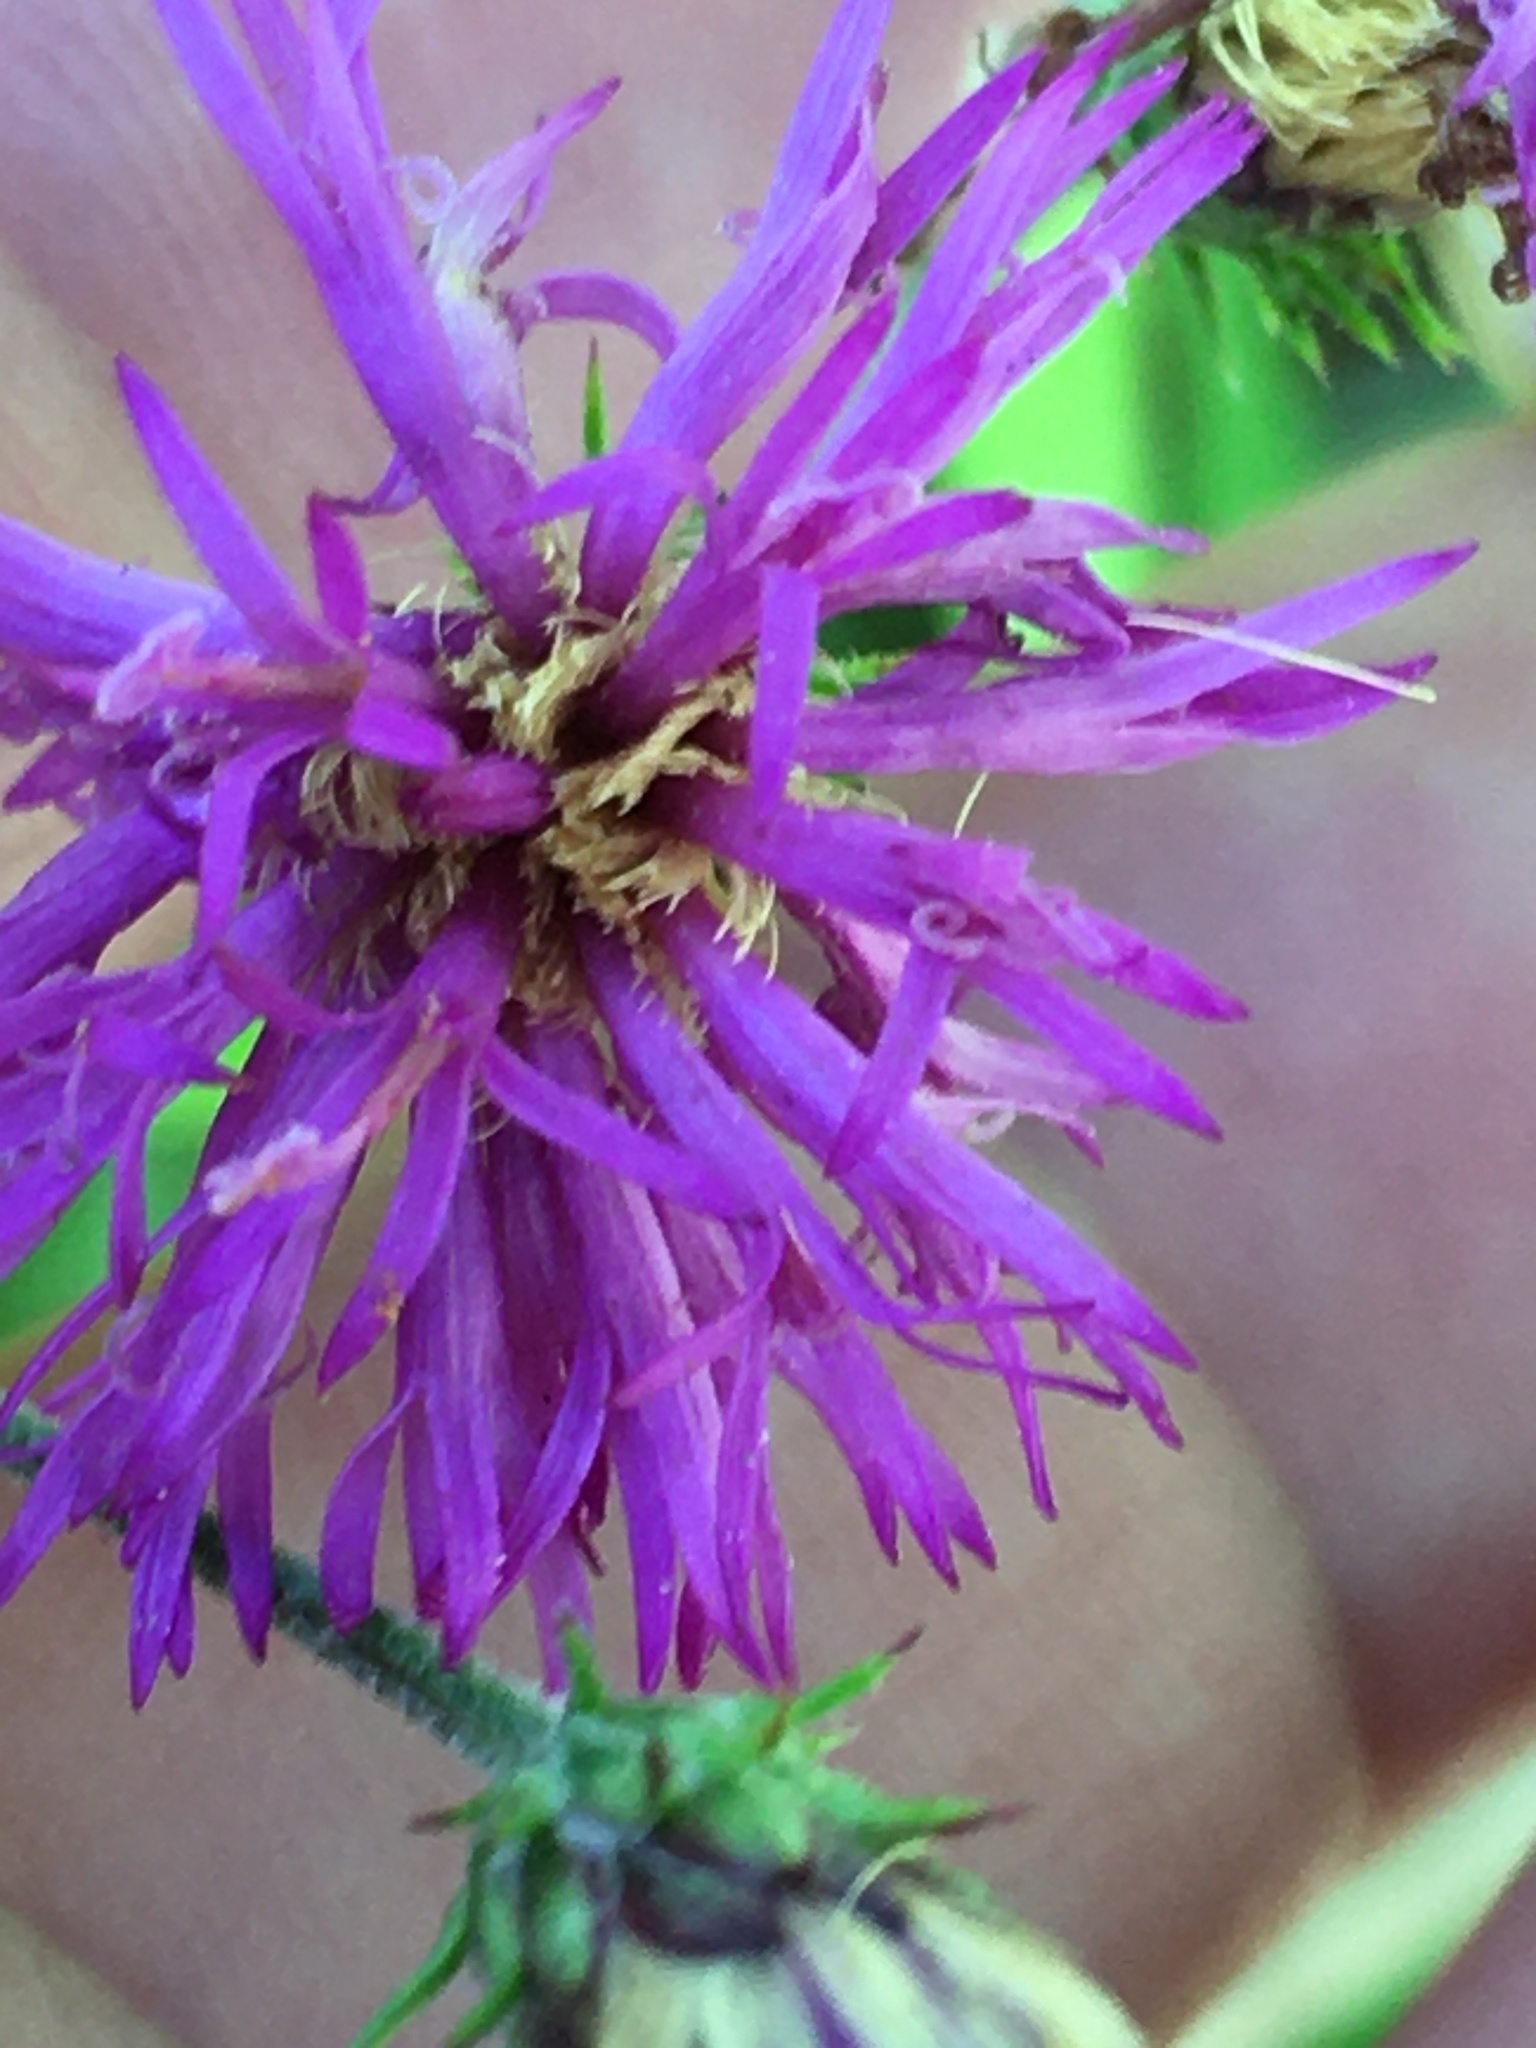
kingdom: Plantae
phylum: Tracheophyta
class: Magnoliopsida
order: Asterales
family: Asteraceae
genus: Vernonia
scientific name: Vernonia acaulis
